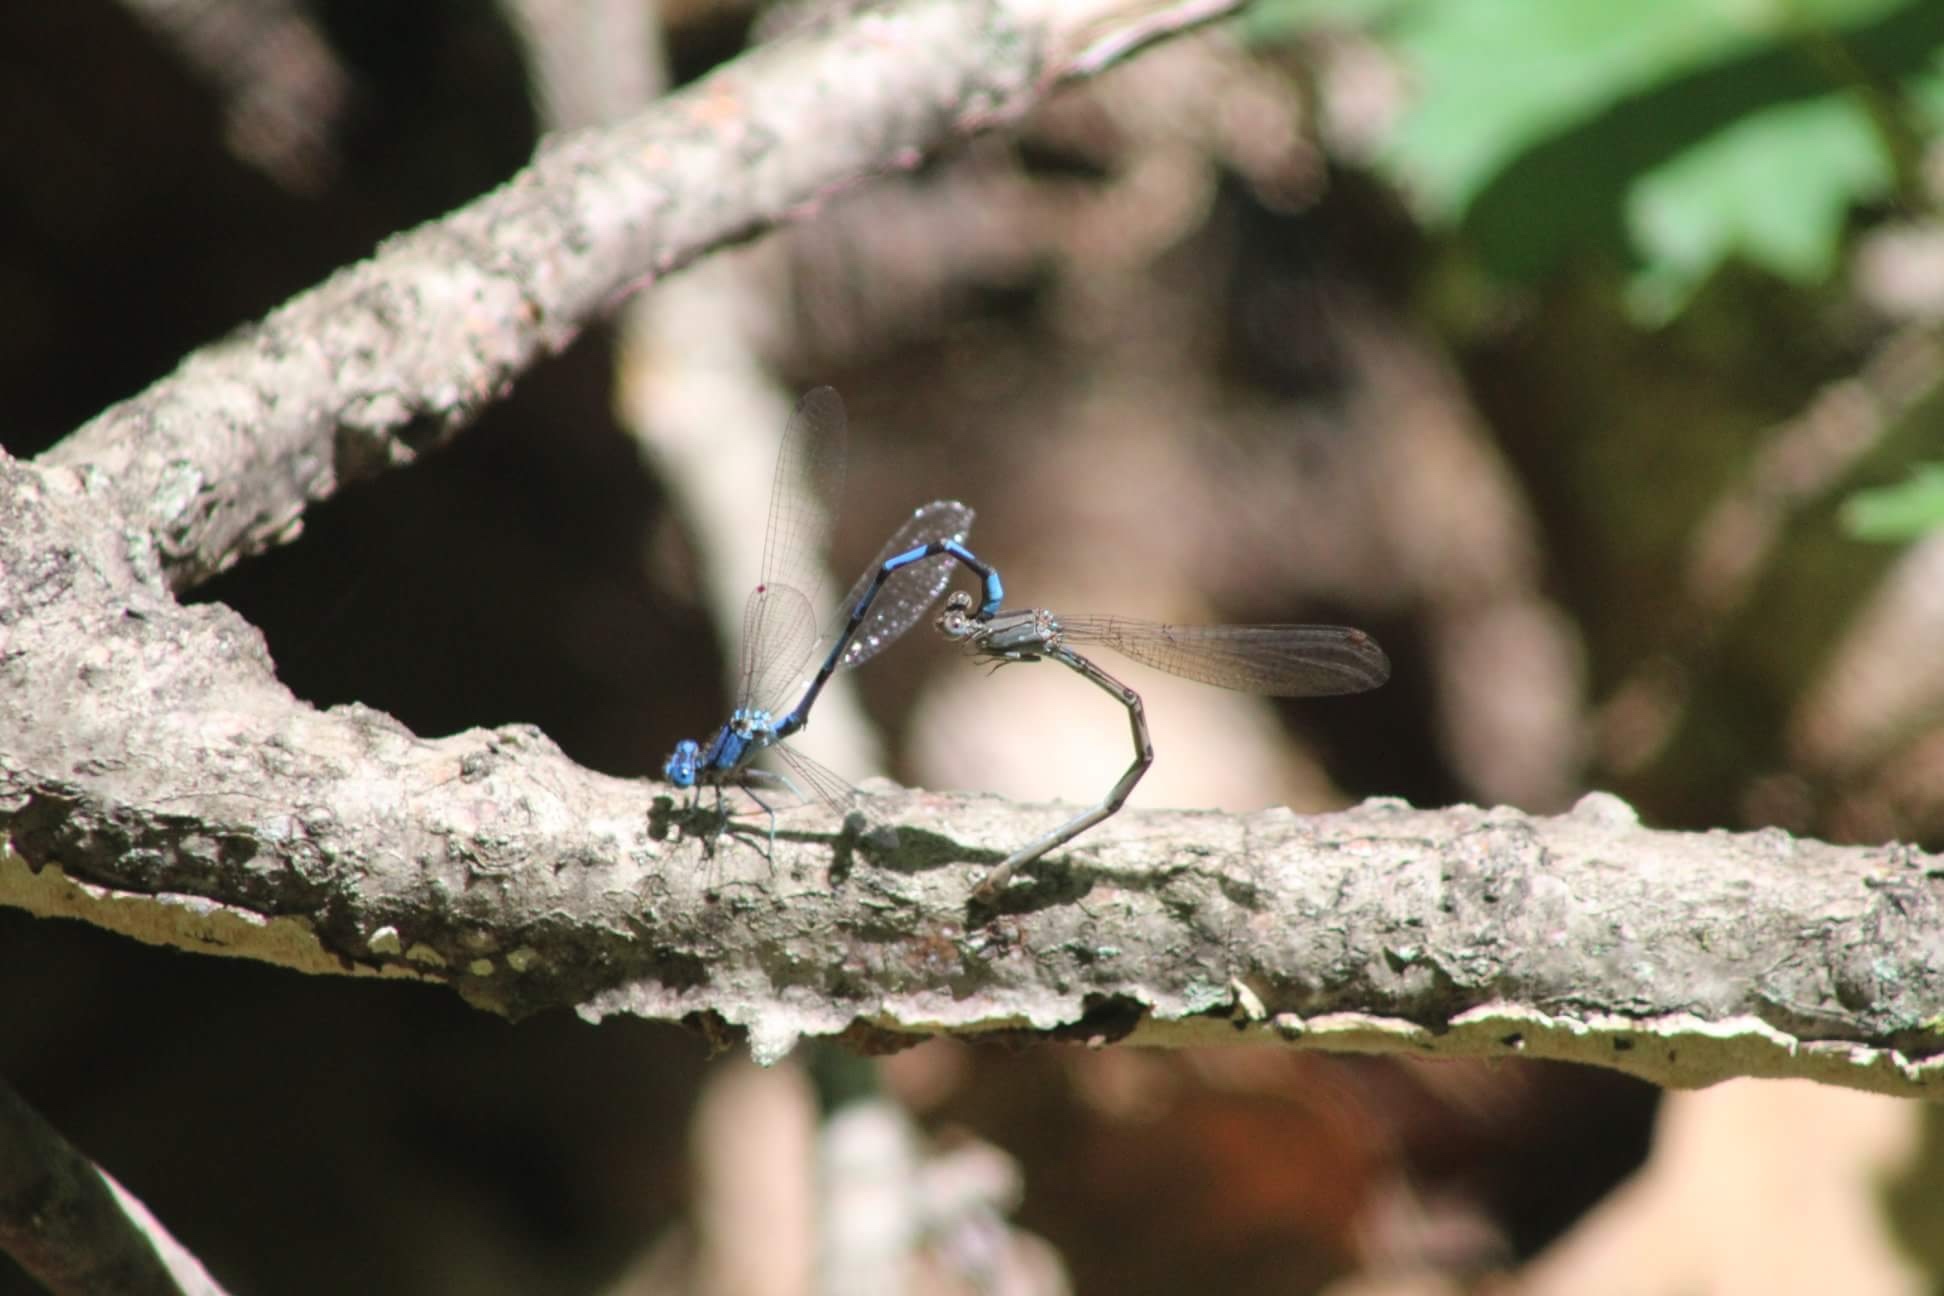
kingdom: Animalia
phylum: Arthropoda
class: Insecta
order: Odonata
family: Coenagrionidae
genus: Argia
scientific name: Argia funebris
